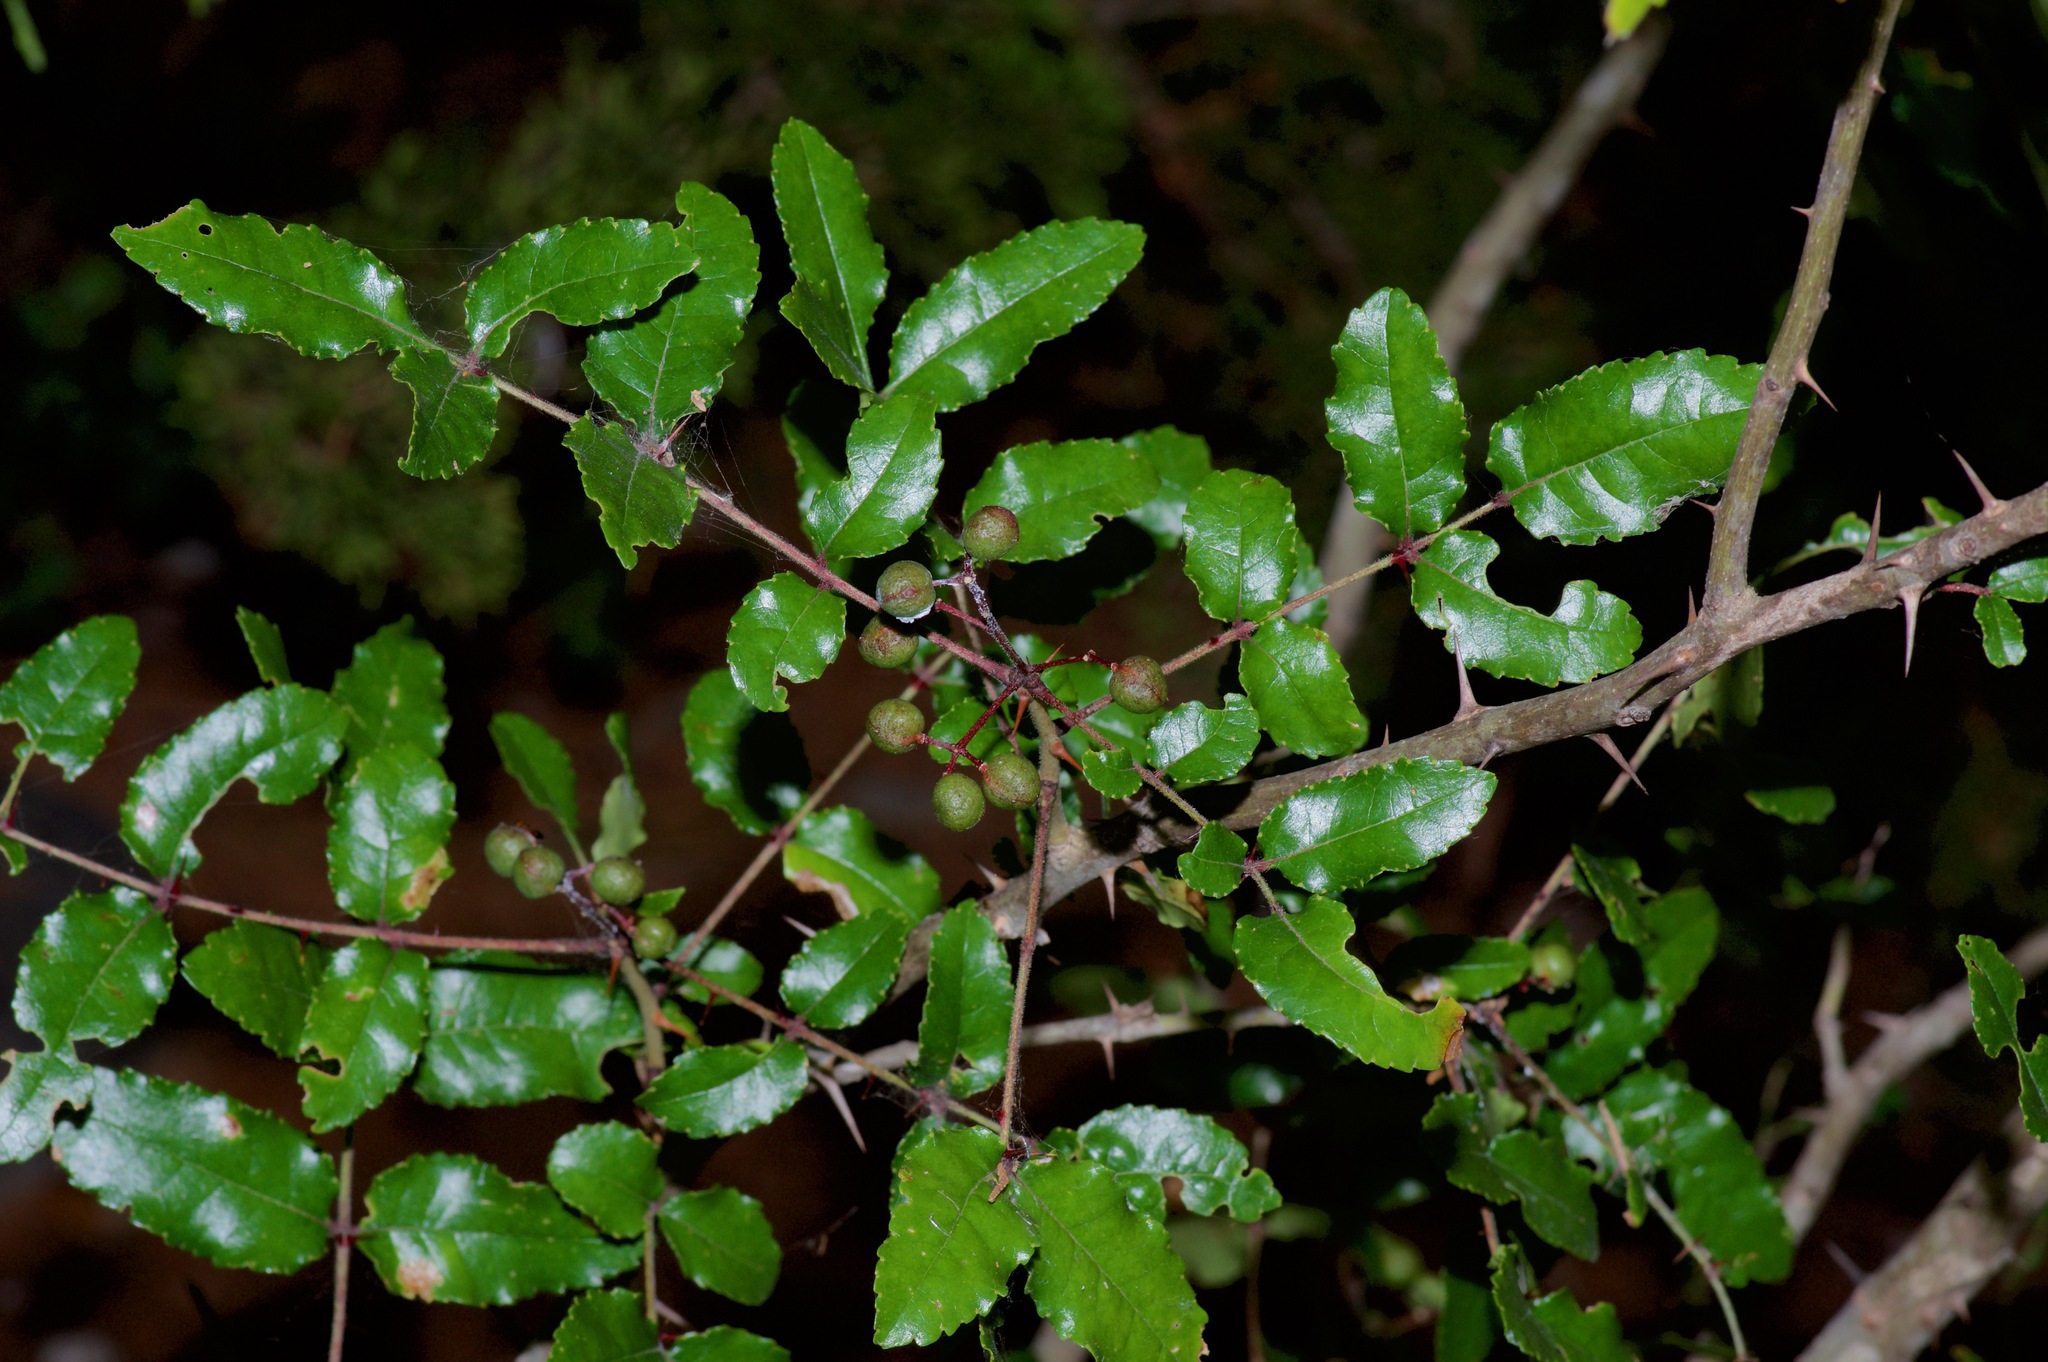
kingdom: Plantae
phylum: Tracheophyta
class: Magnoliopsida
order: Sapindales
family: Rutaceae
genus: Zanthoxylum
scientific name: Zanthoxylum clava-herculis
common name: Hercules'-club
